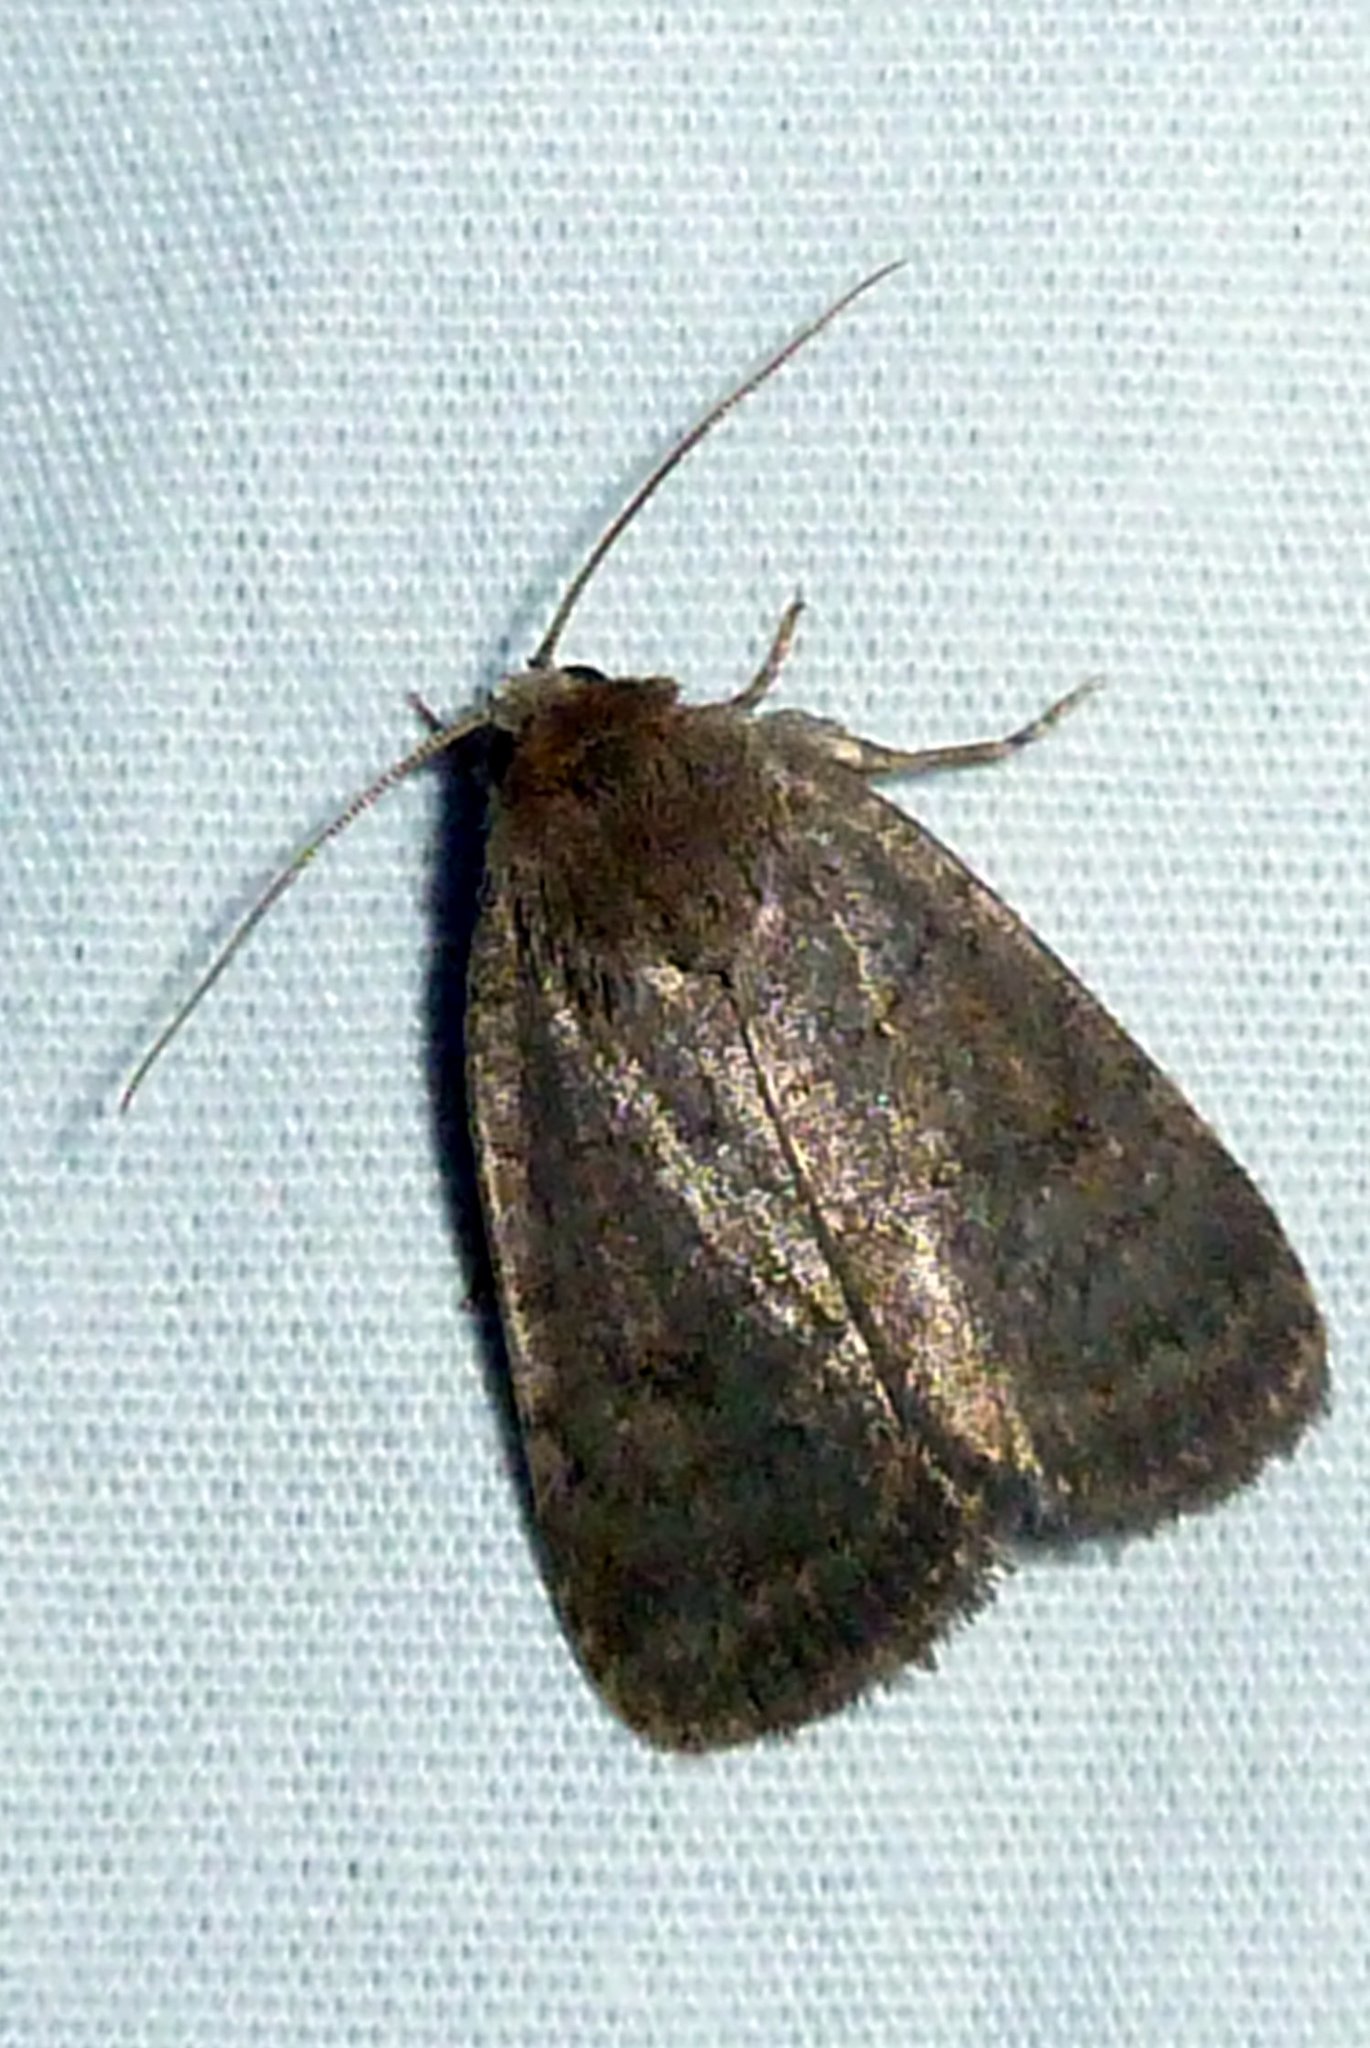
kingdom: Animalia
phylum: Arthropoda
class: Insecta
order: Lepidoptera
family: Noctuidae
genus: Athetis
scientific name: Athetis tarda
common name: Slowpoke moth
